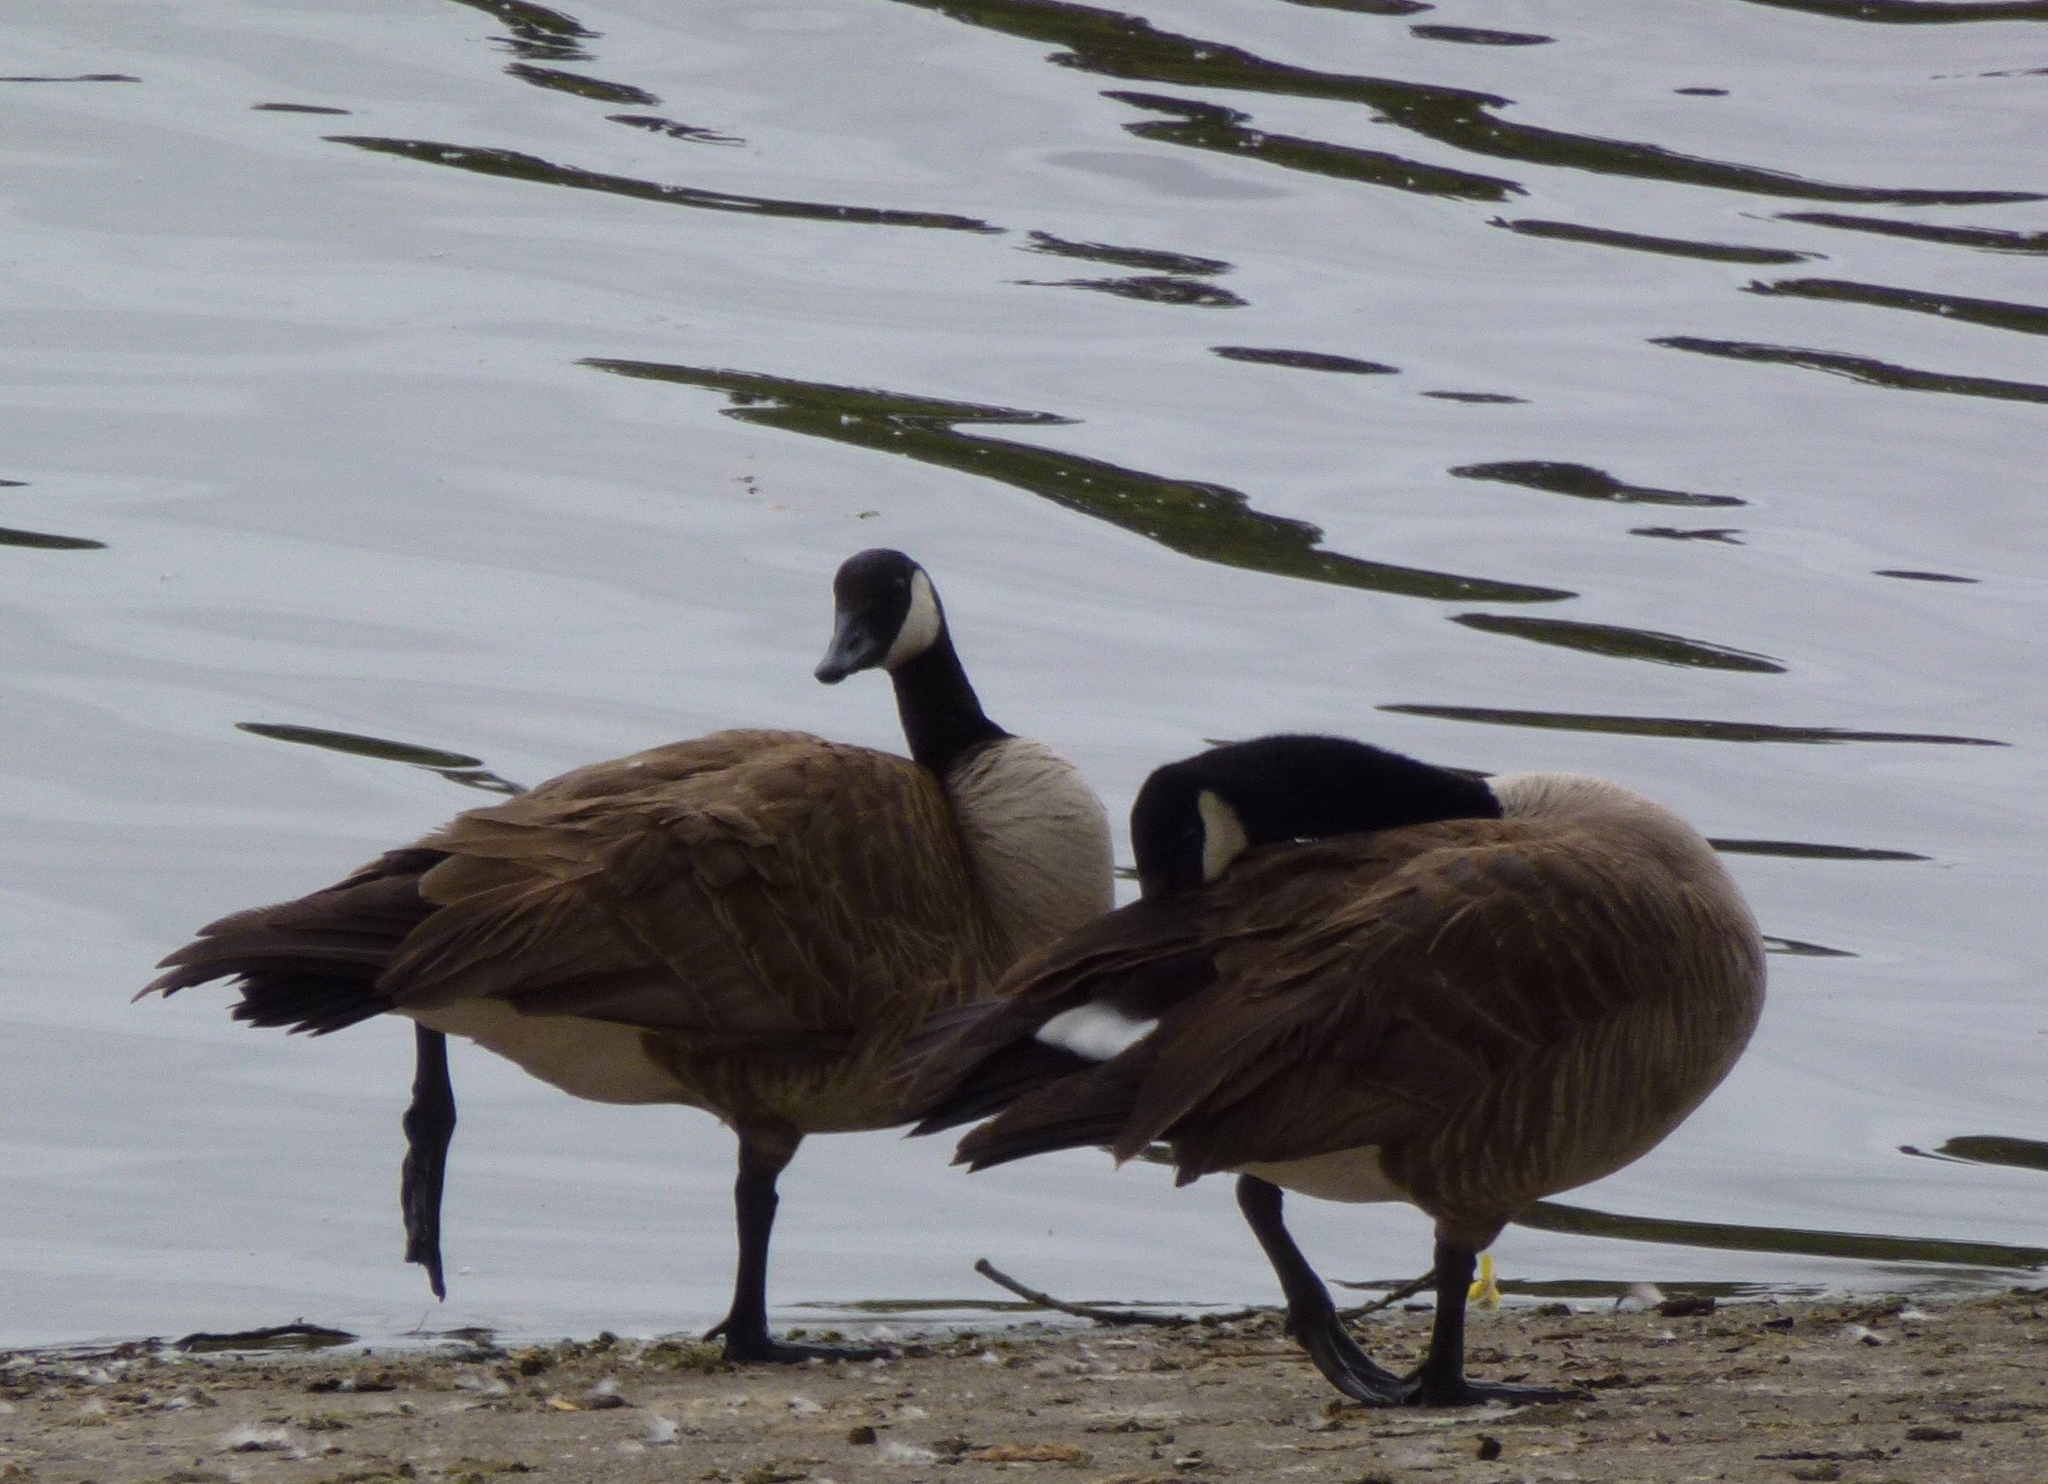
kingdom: Animalia
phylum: Chordata
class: Aves
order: Anseriformes
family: Anatidae
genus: Branta
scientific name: Branta canadensis
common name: Canada goose
